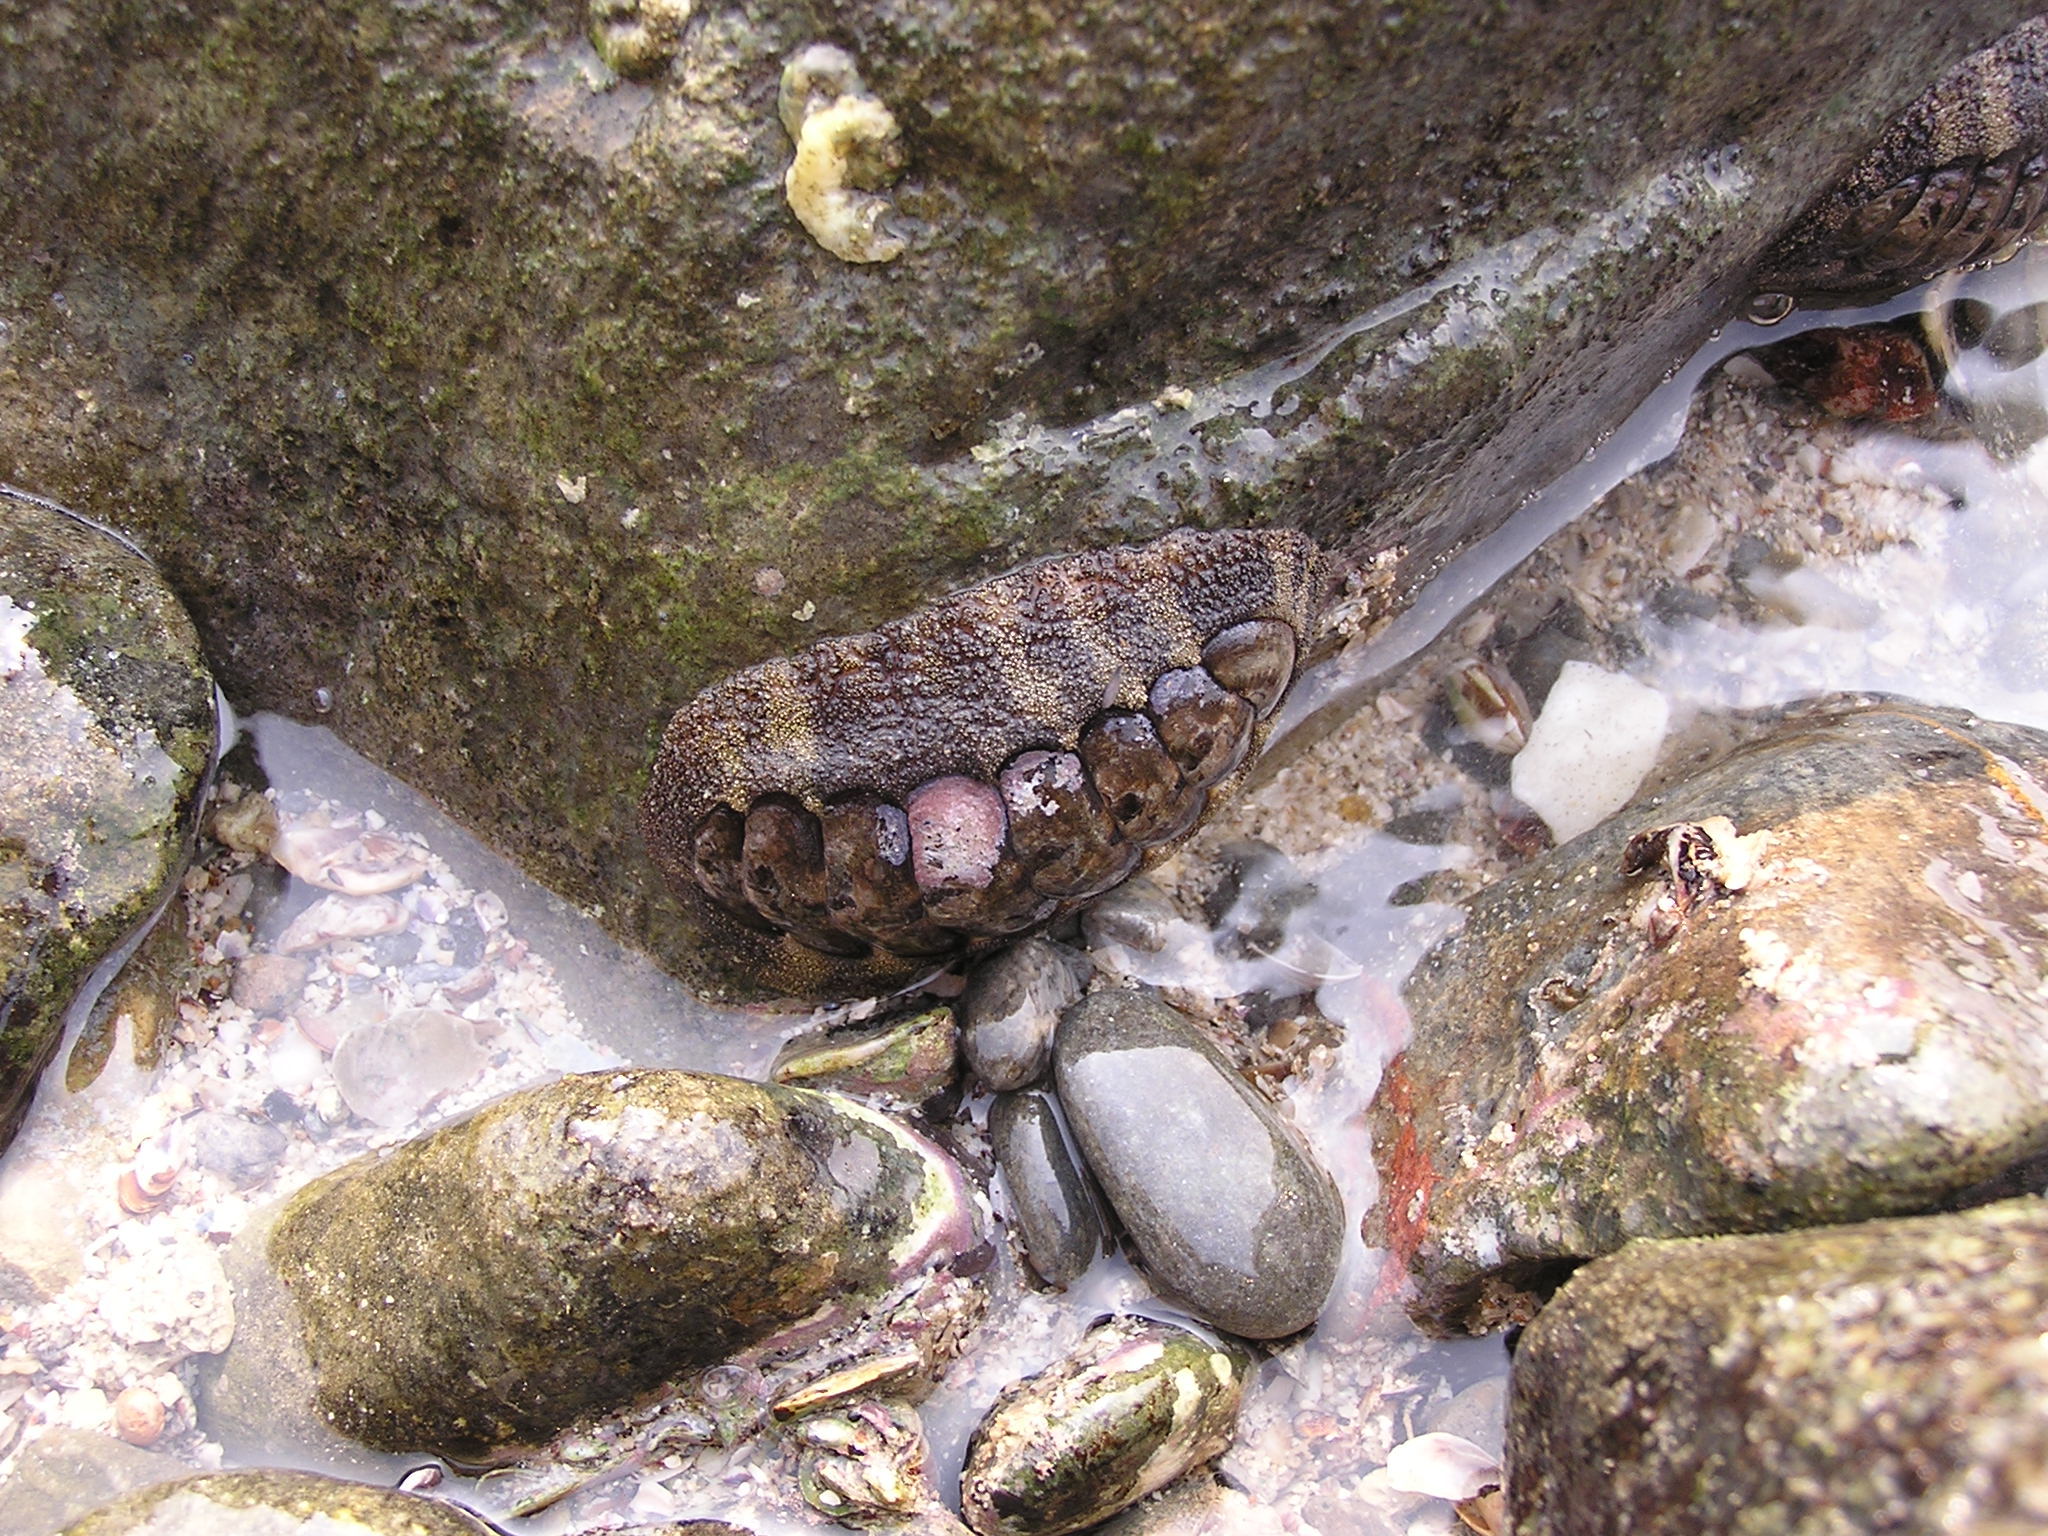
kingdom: Animalia
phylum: Mollusca
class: Polyplacophora
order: Chitonida
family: Chitonidae
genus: Acanthopleura
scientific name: Acanthopleura gemmata
